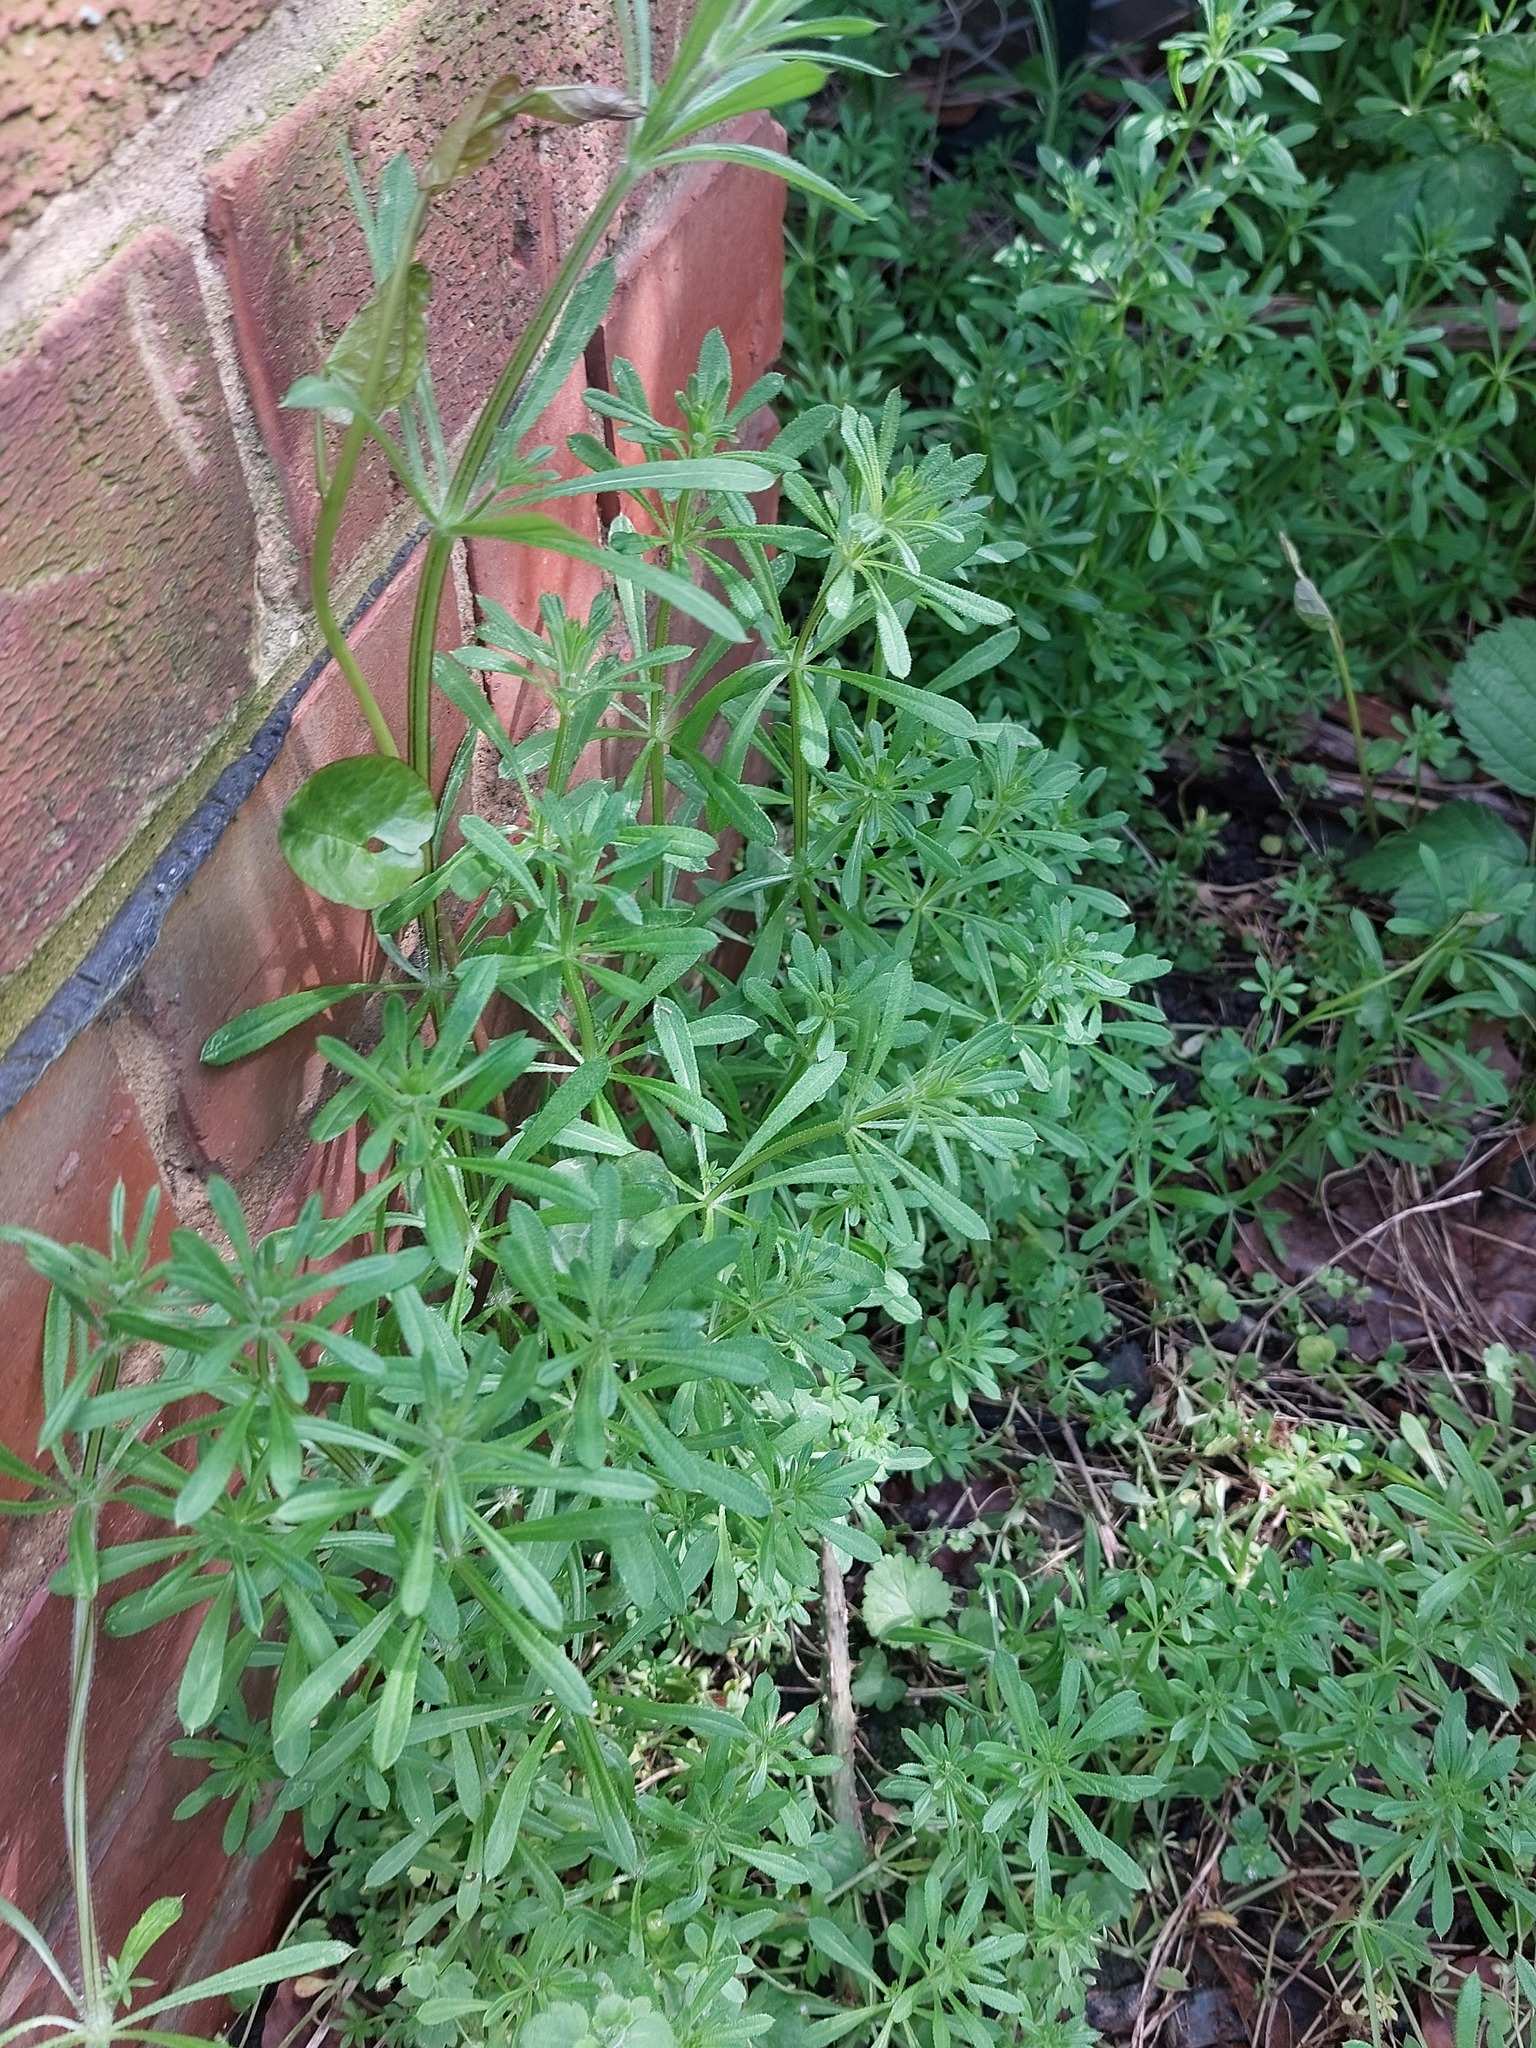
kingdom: Plantae
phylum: Tracheophyta
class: Magnoliopsida
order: Gentianales
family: Rubiaceae
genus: Galium
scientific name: Galium aparine
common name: Cleavers
